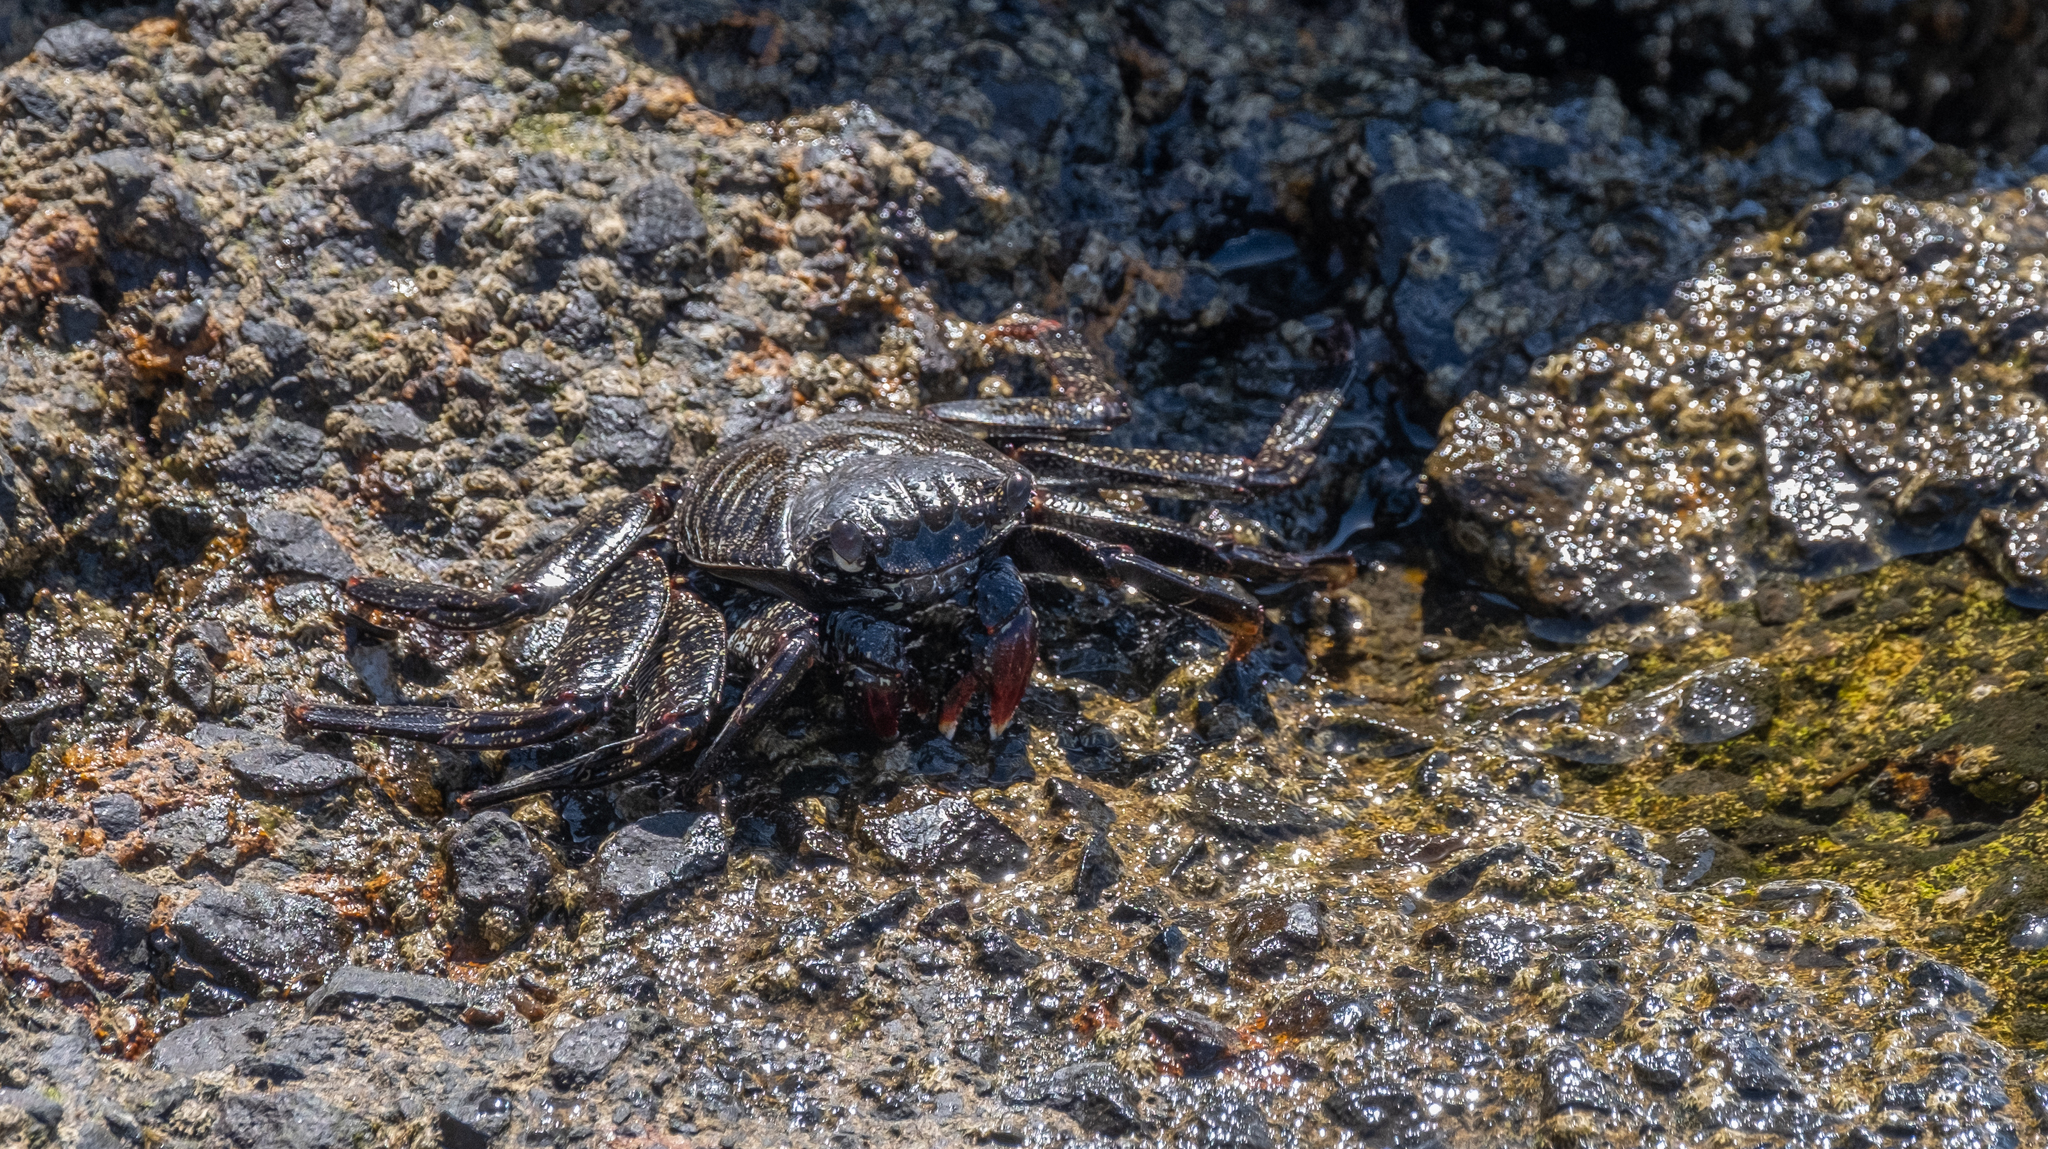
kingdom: Animalia
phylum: Arthropoda
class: Malacostraca
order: Decapoda
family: Grapsidae
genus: Grapsus
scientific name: Grapsus adscensionis
